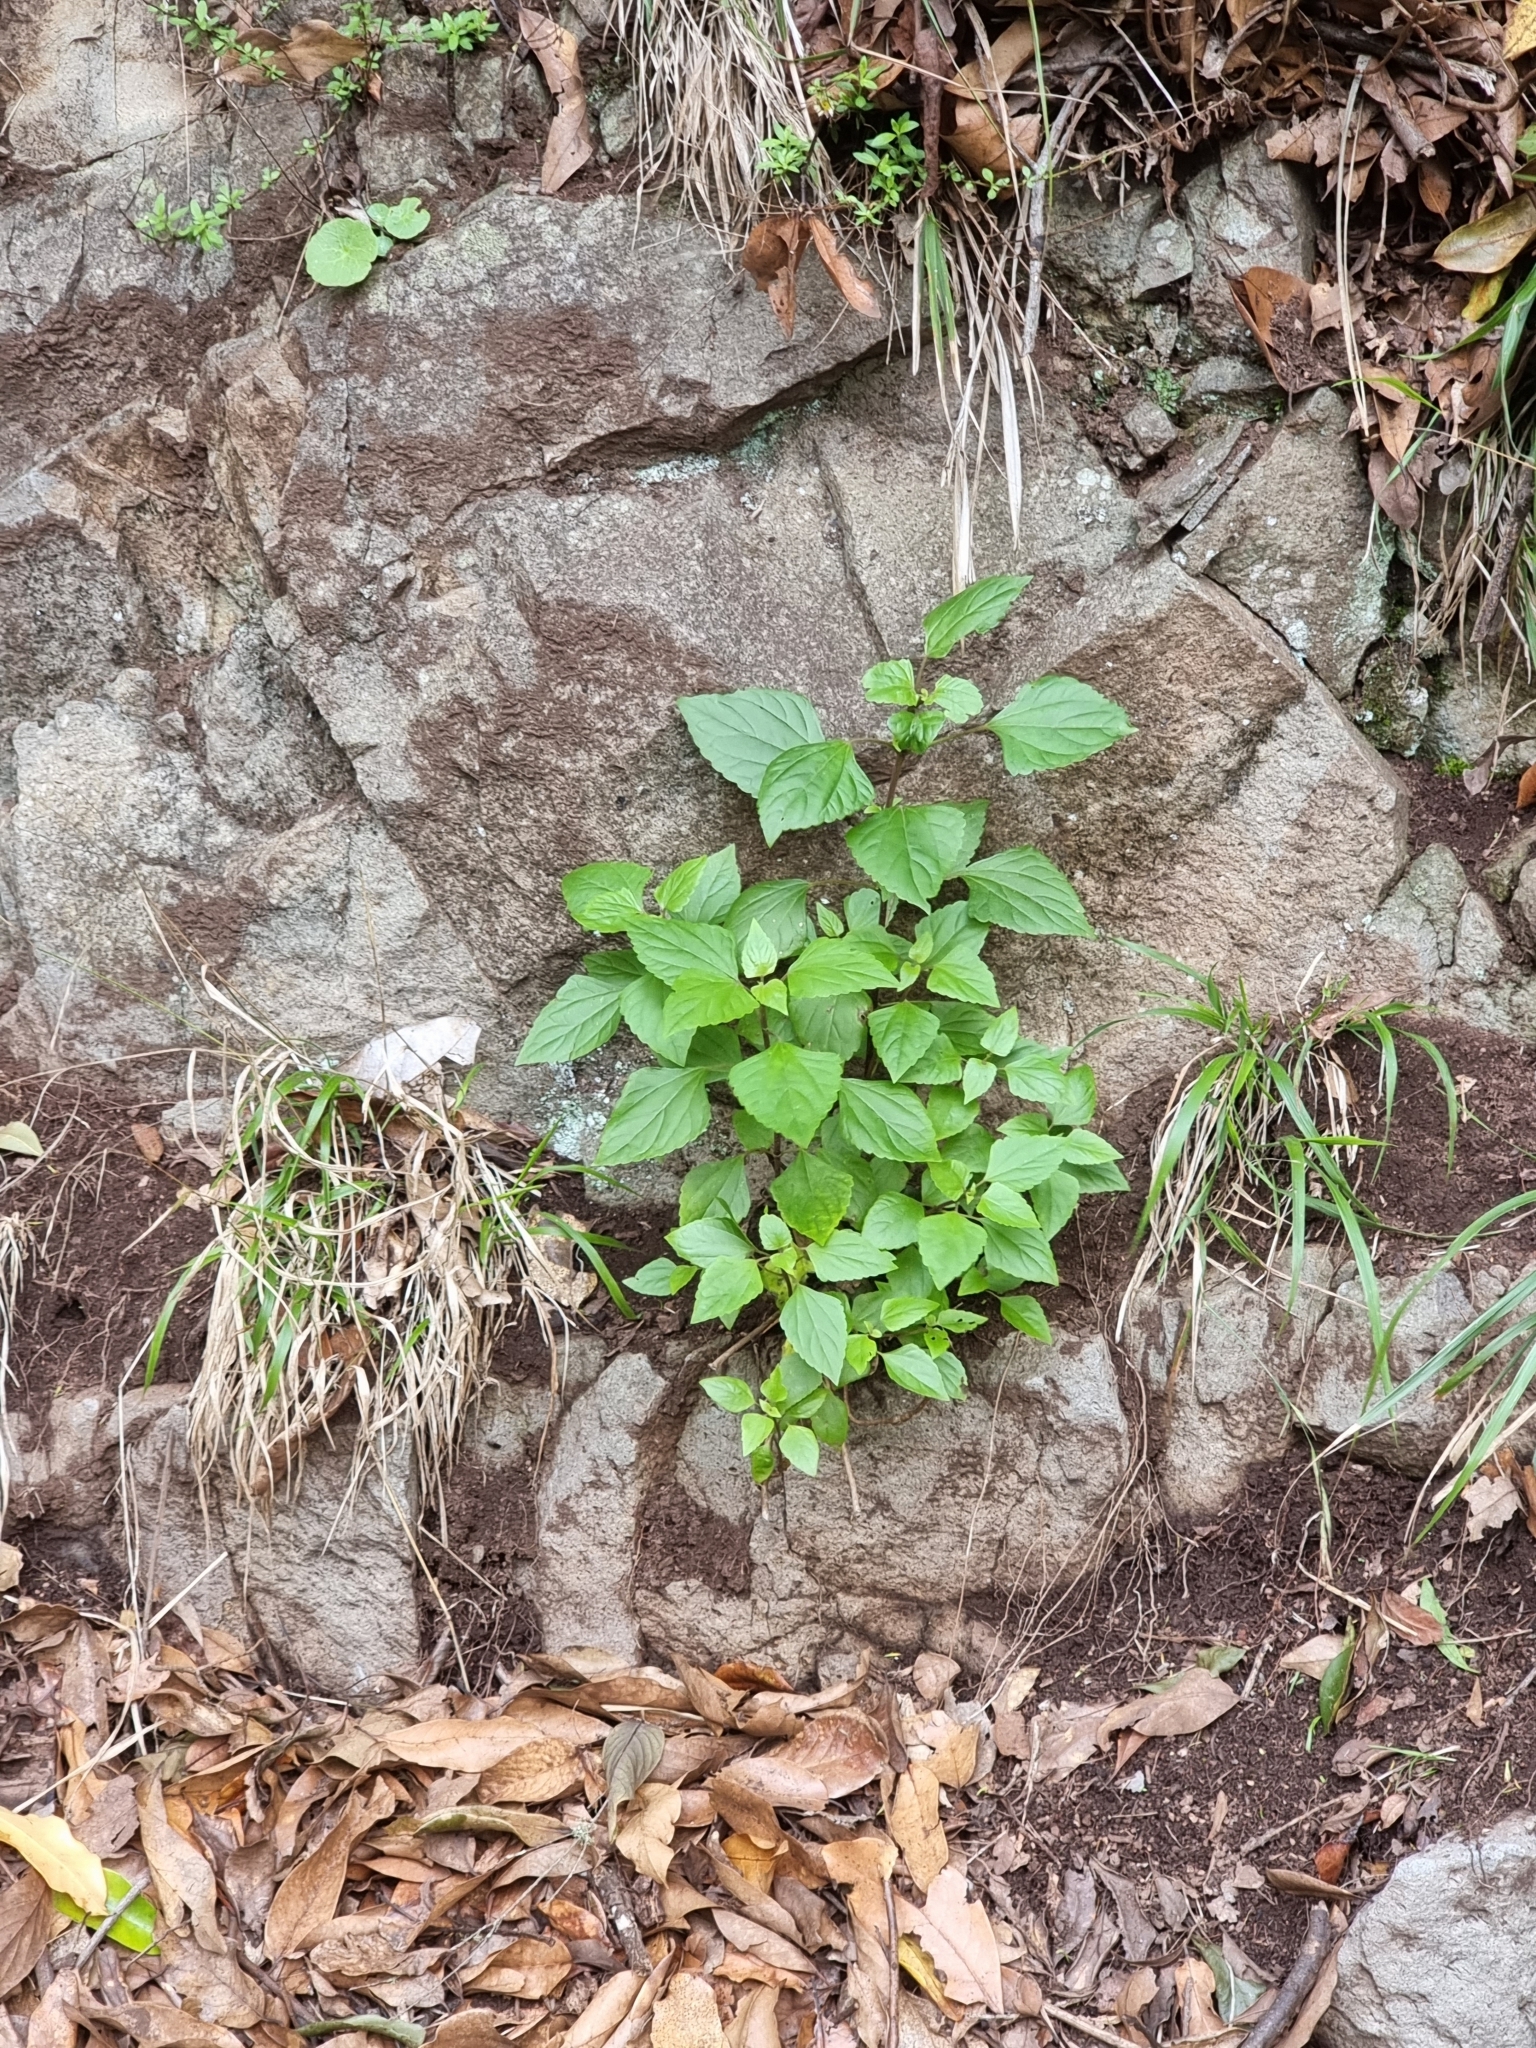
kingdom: Plantae
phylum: Tracheophyta
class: Magnoliopsida
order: Asterales
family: Asteraceae
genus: Ageratina
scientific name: Ageratina adenophora
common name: Sticky snakeroot
